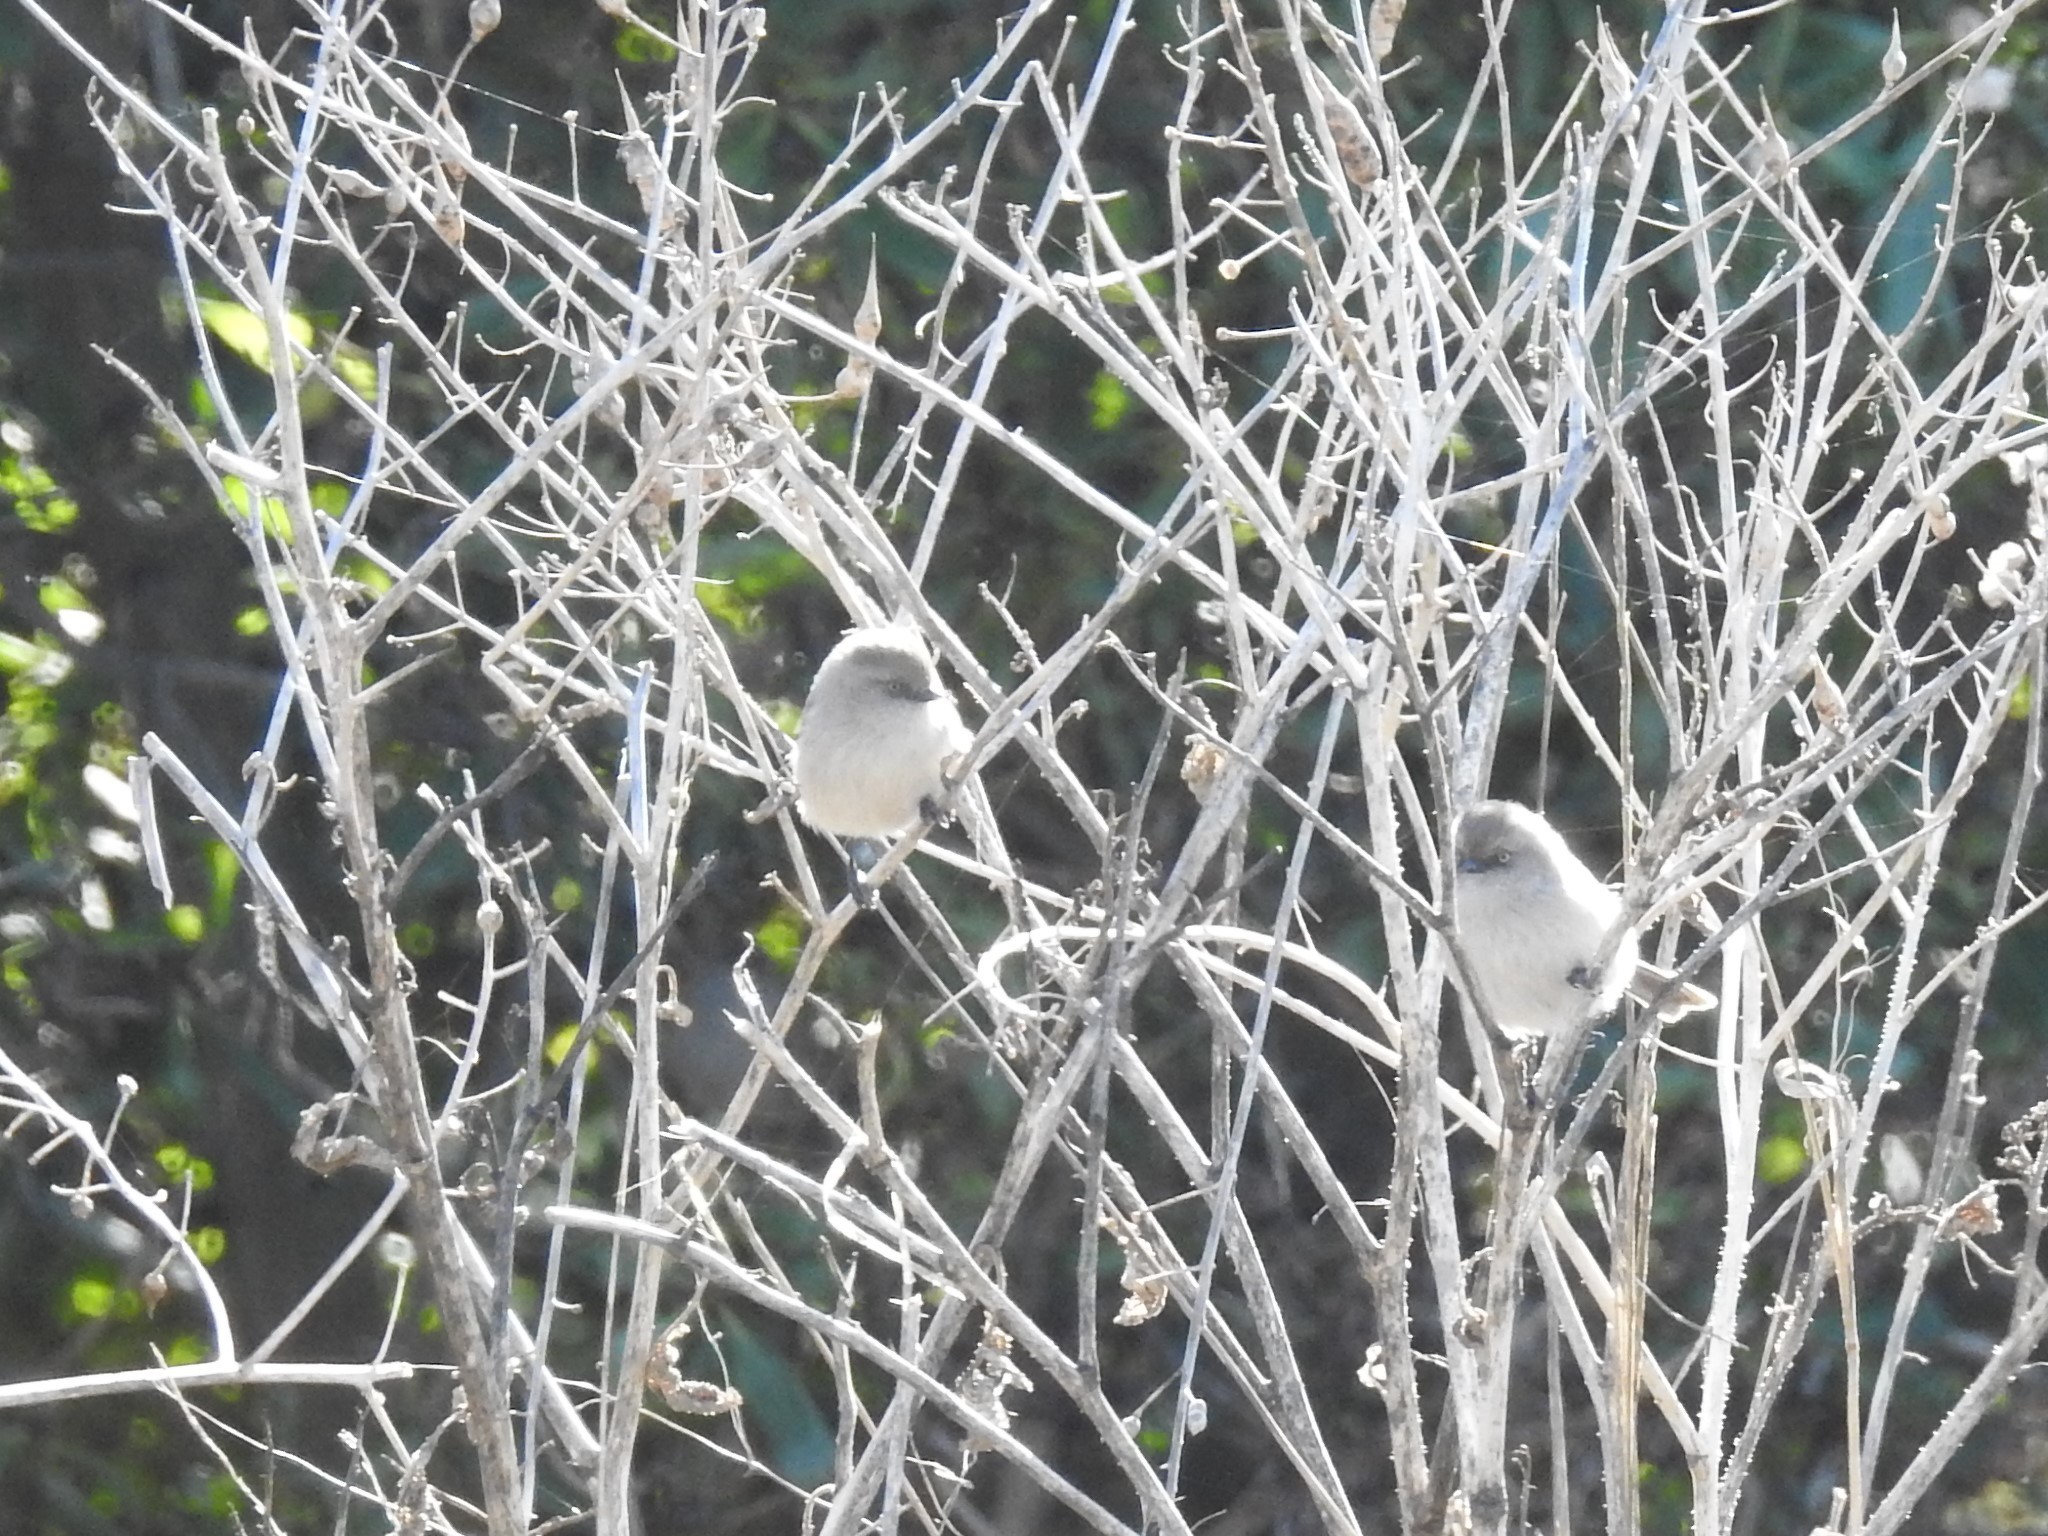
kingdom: Animalia
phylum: Chordata
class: Aves
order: Passeriformes
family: Aegithalidae
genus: Psaltriparus
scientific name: Psaltriparus minimus
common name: American bushtit
